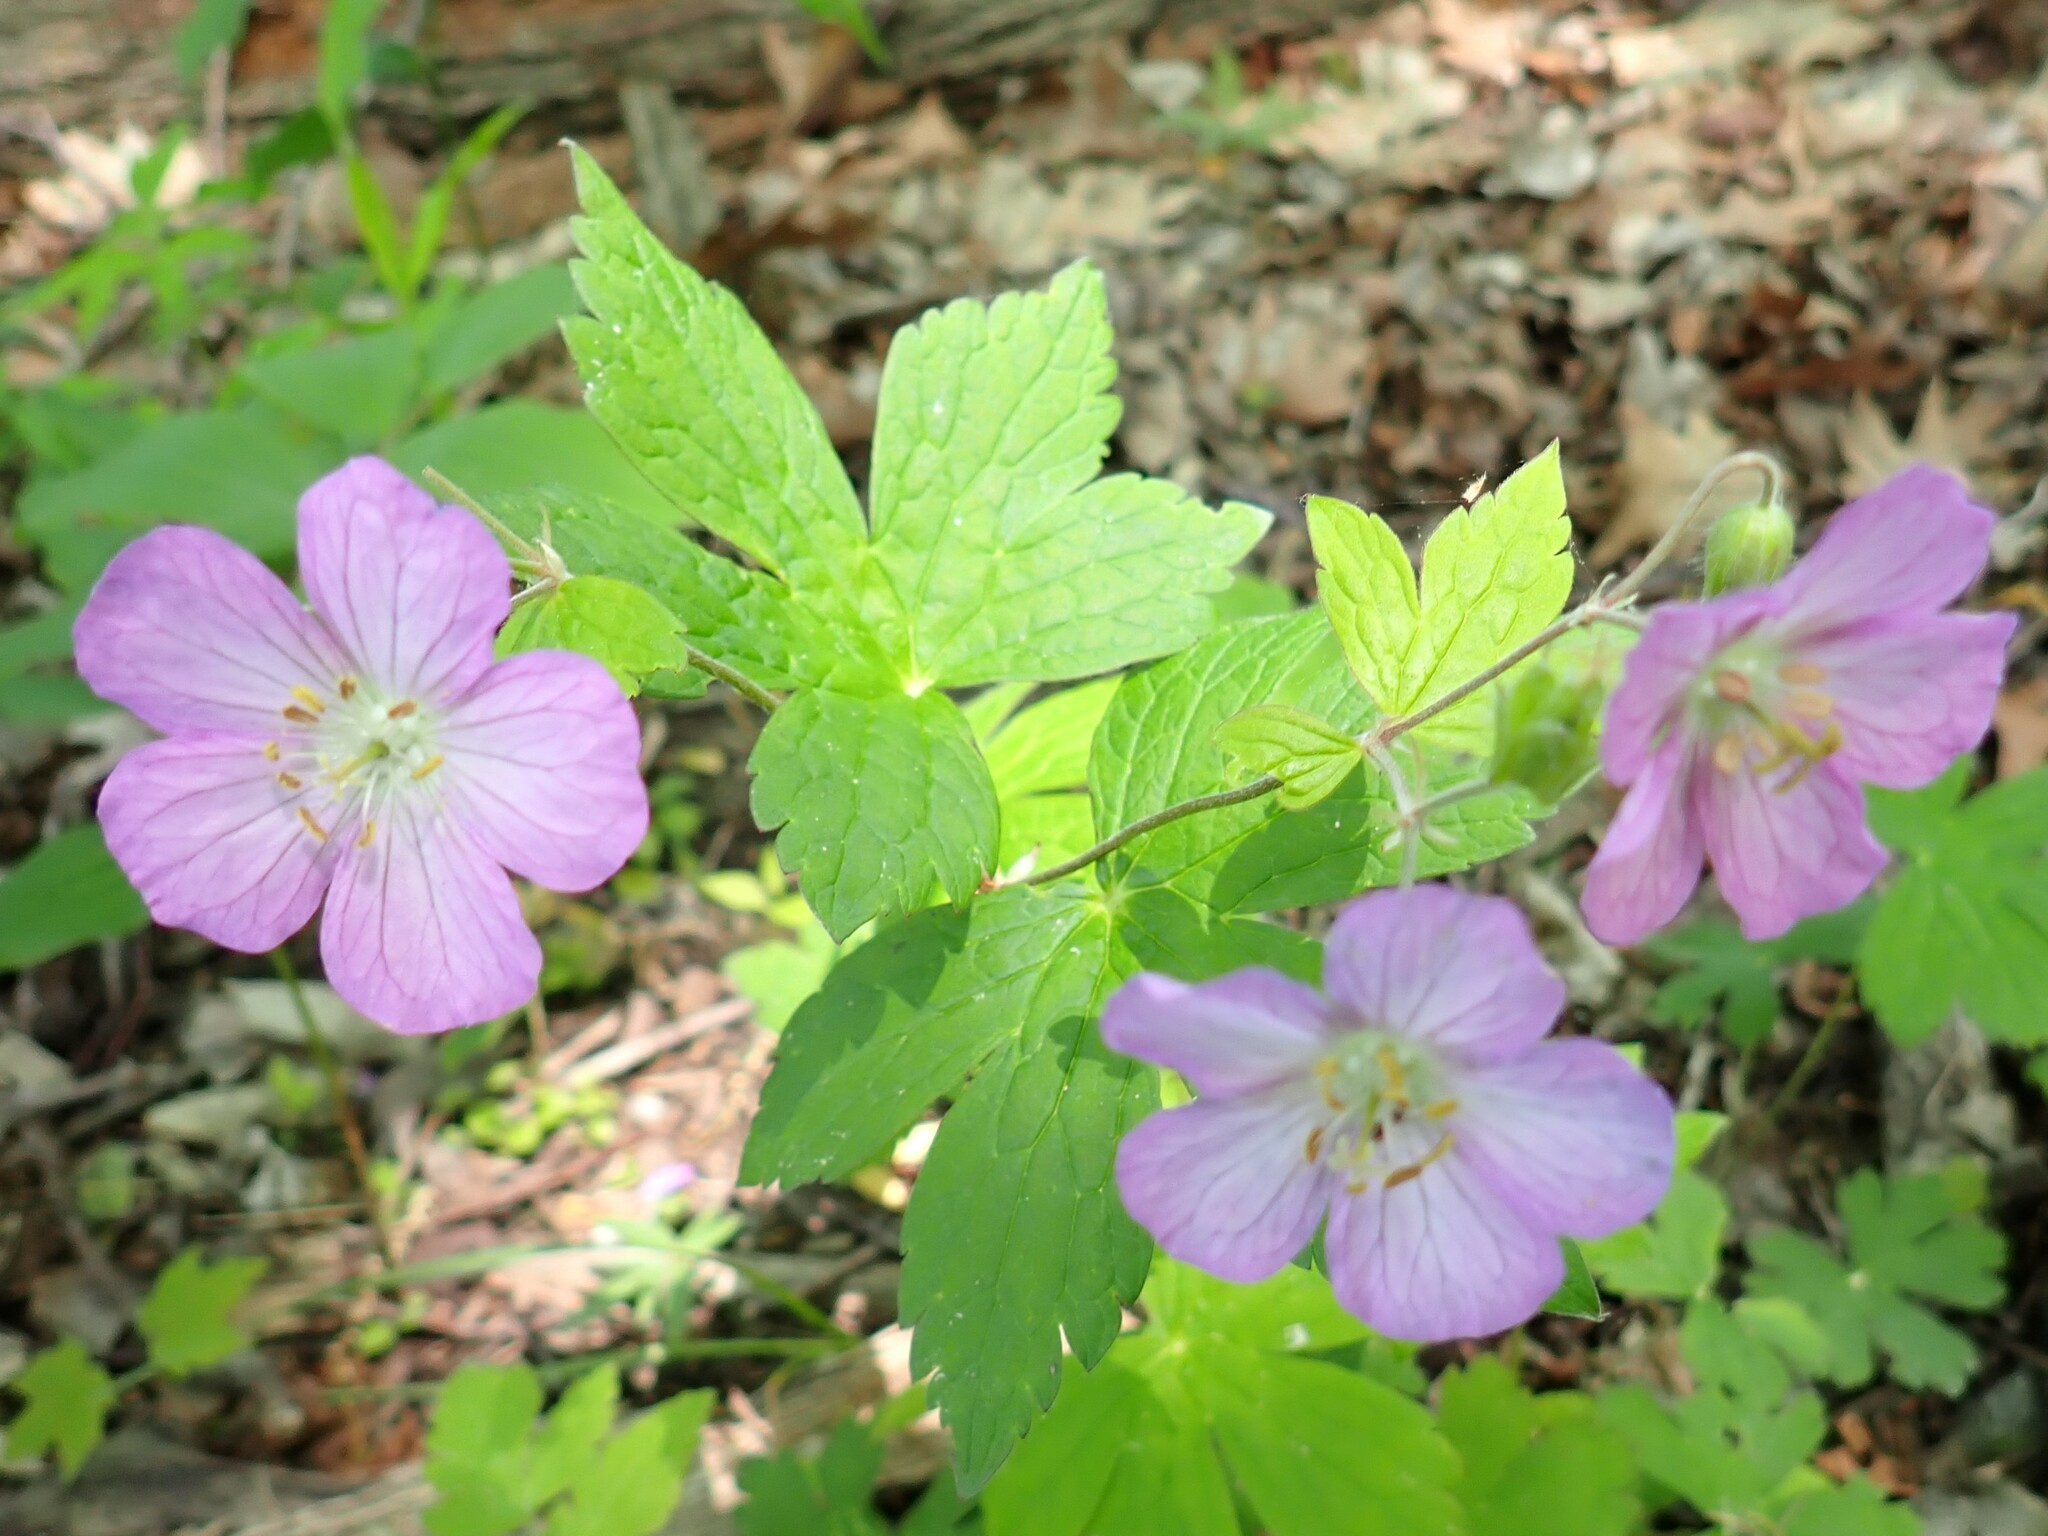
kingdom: Plantae
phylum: Tracheophyta
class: Magnoliopsida
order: Geraniales
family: Geraniaceae
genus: Geranium
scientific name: Geranium maculatum
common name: Spotted geranium
